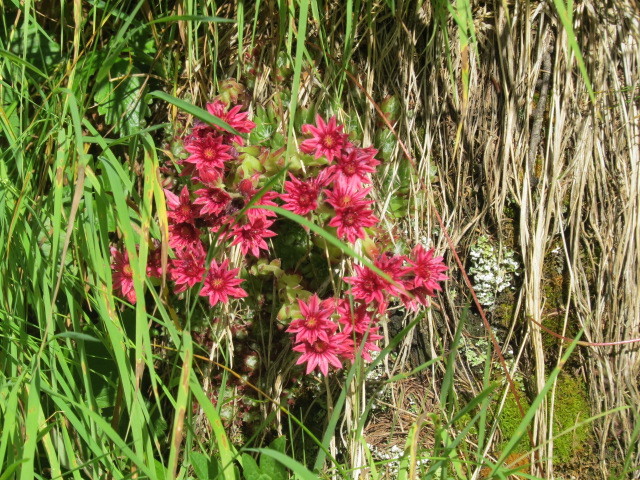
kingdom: Plantae
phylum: Tracheophyta
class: Magnoliopsida
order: Saxifragales
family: Crassulaceae
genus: Sempervivum
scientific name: Sempervivum arachnoideum
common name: Cobweb house-leek
